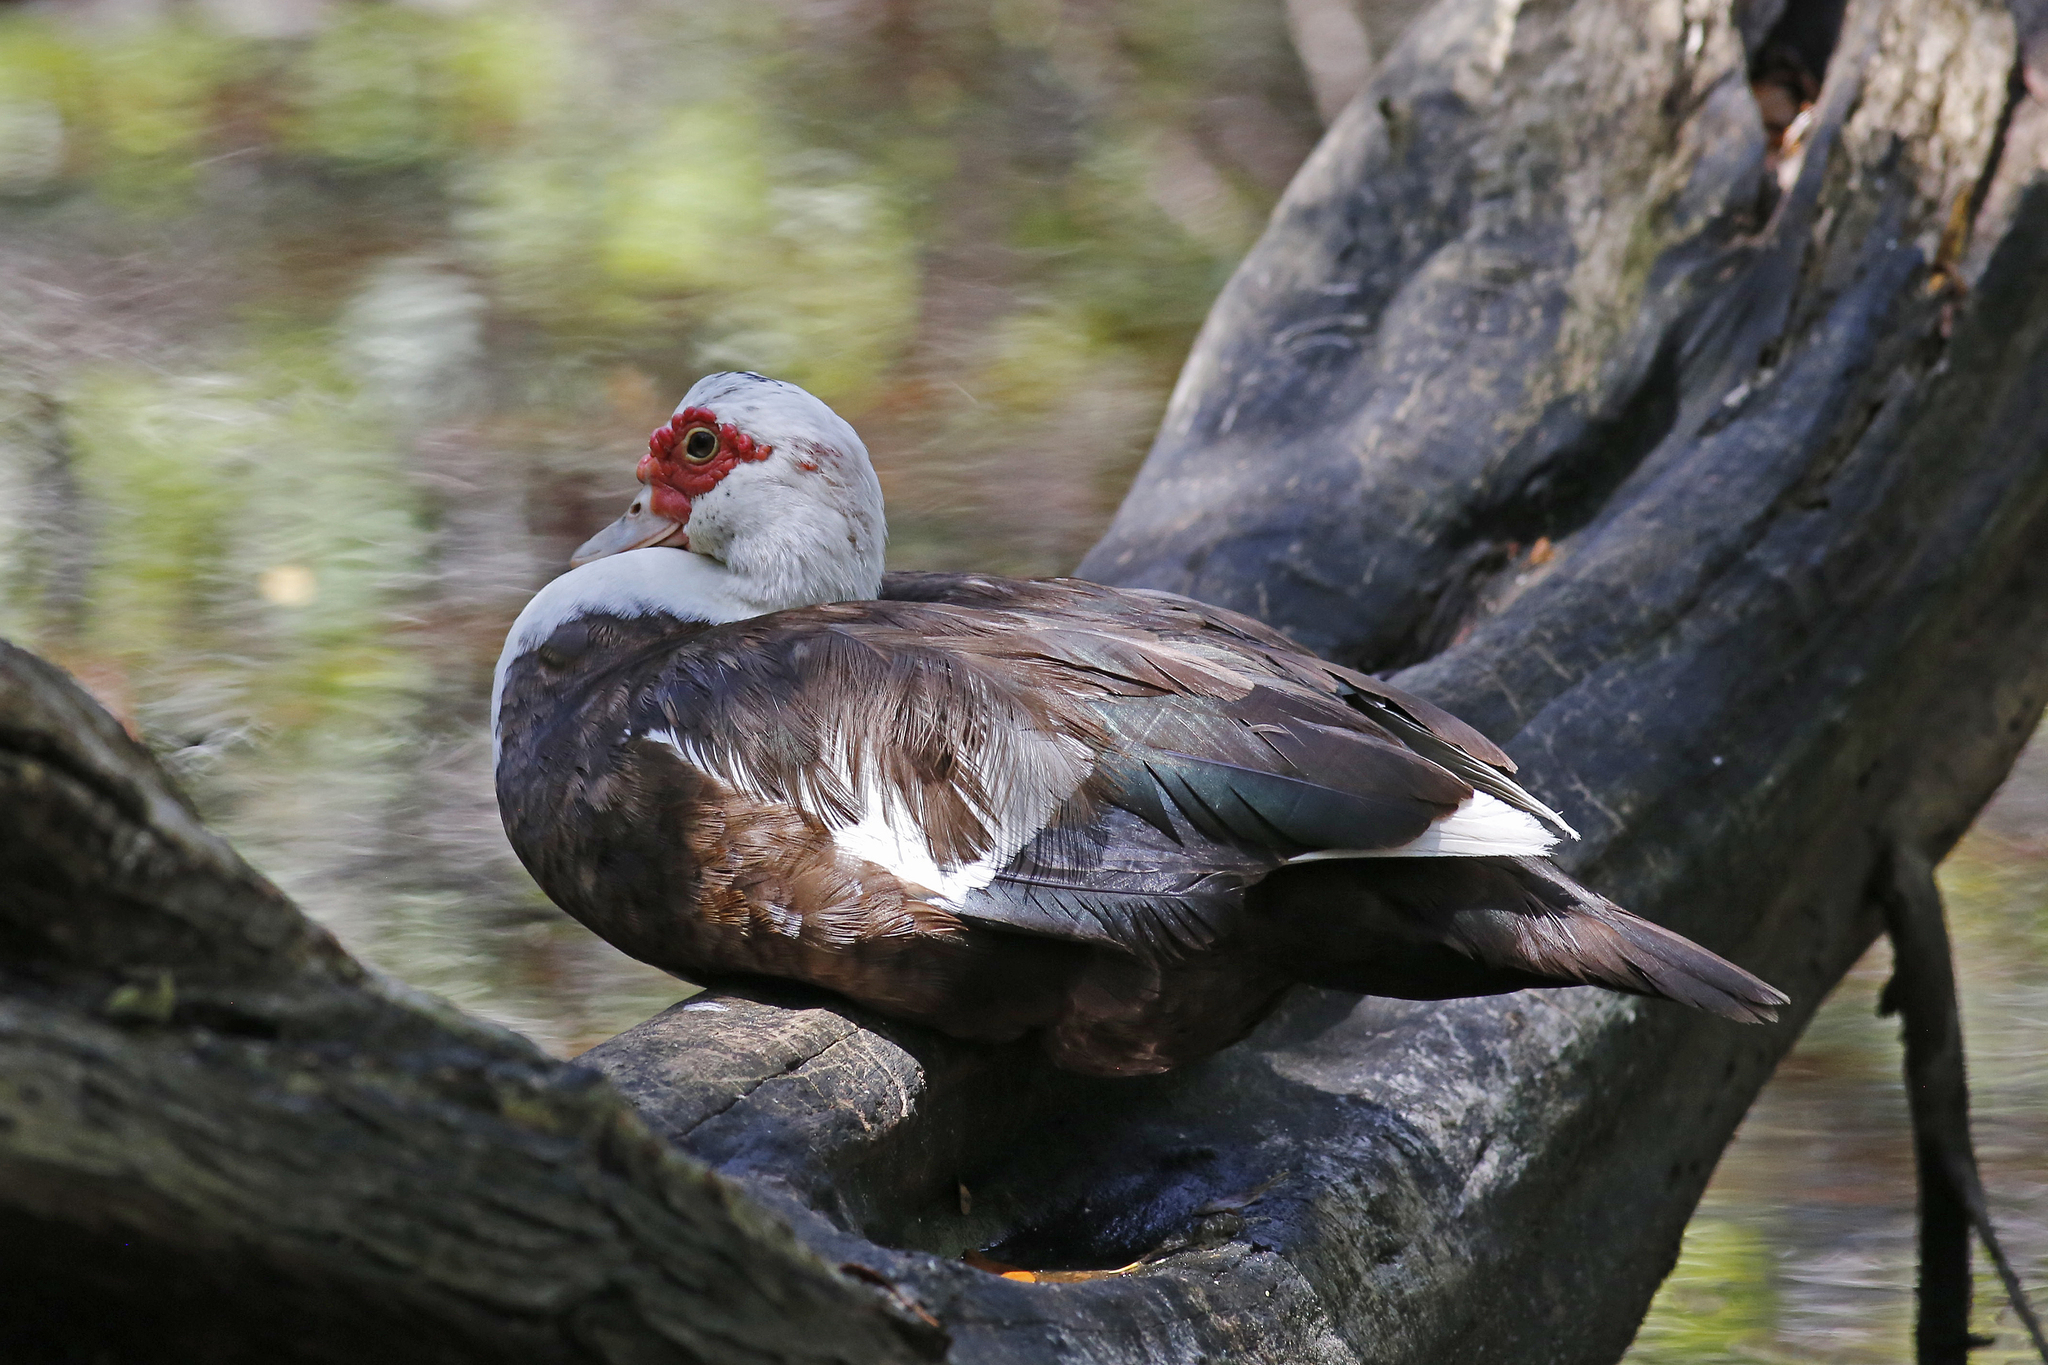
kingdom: Animalia
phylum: Chordata
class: Aves
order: Anseriformes
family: Anatidae
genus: Cairina
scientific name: Cairina moschata
